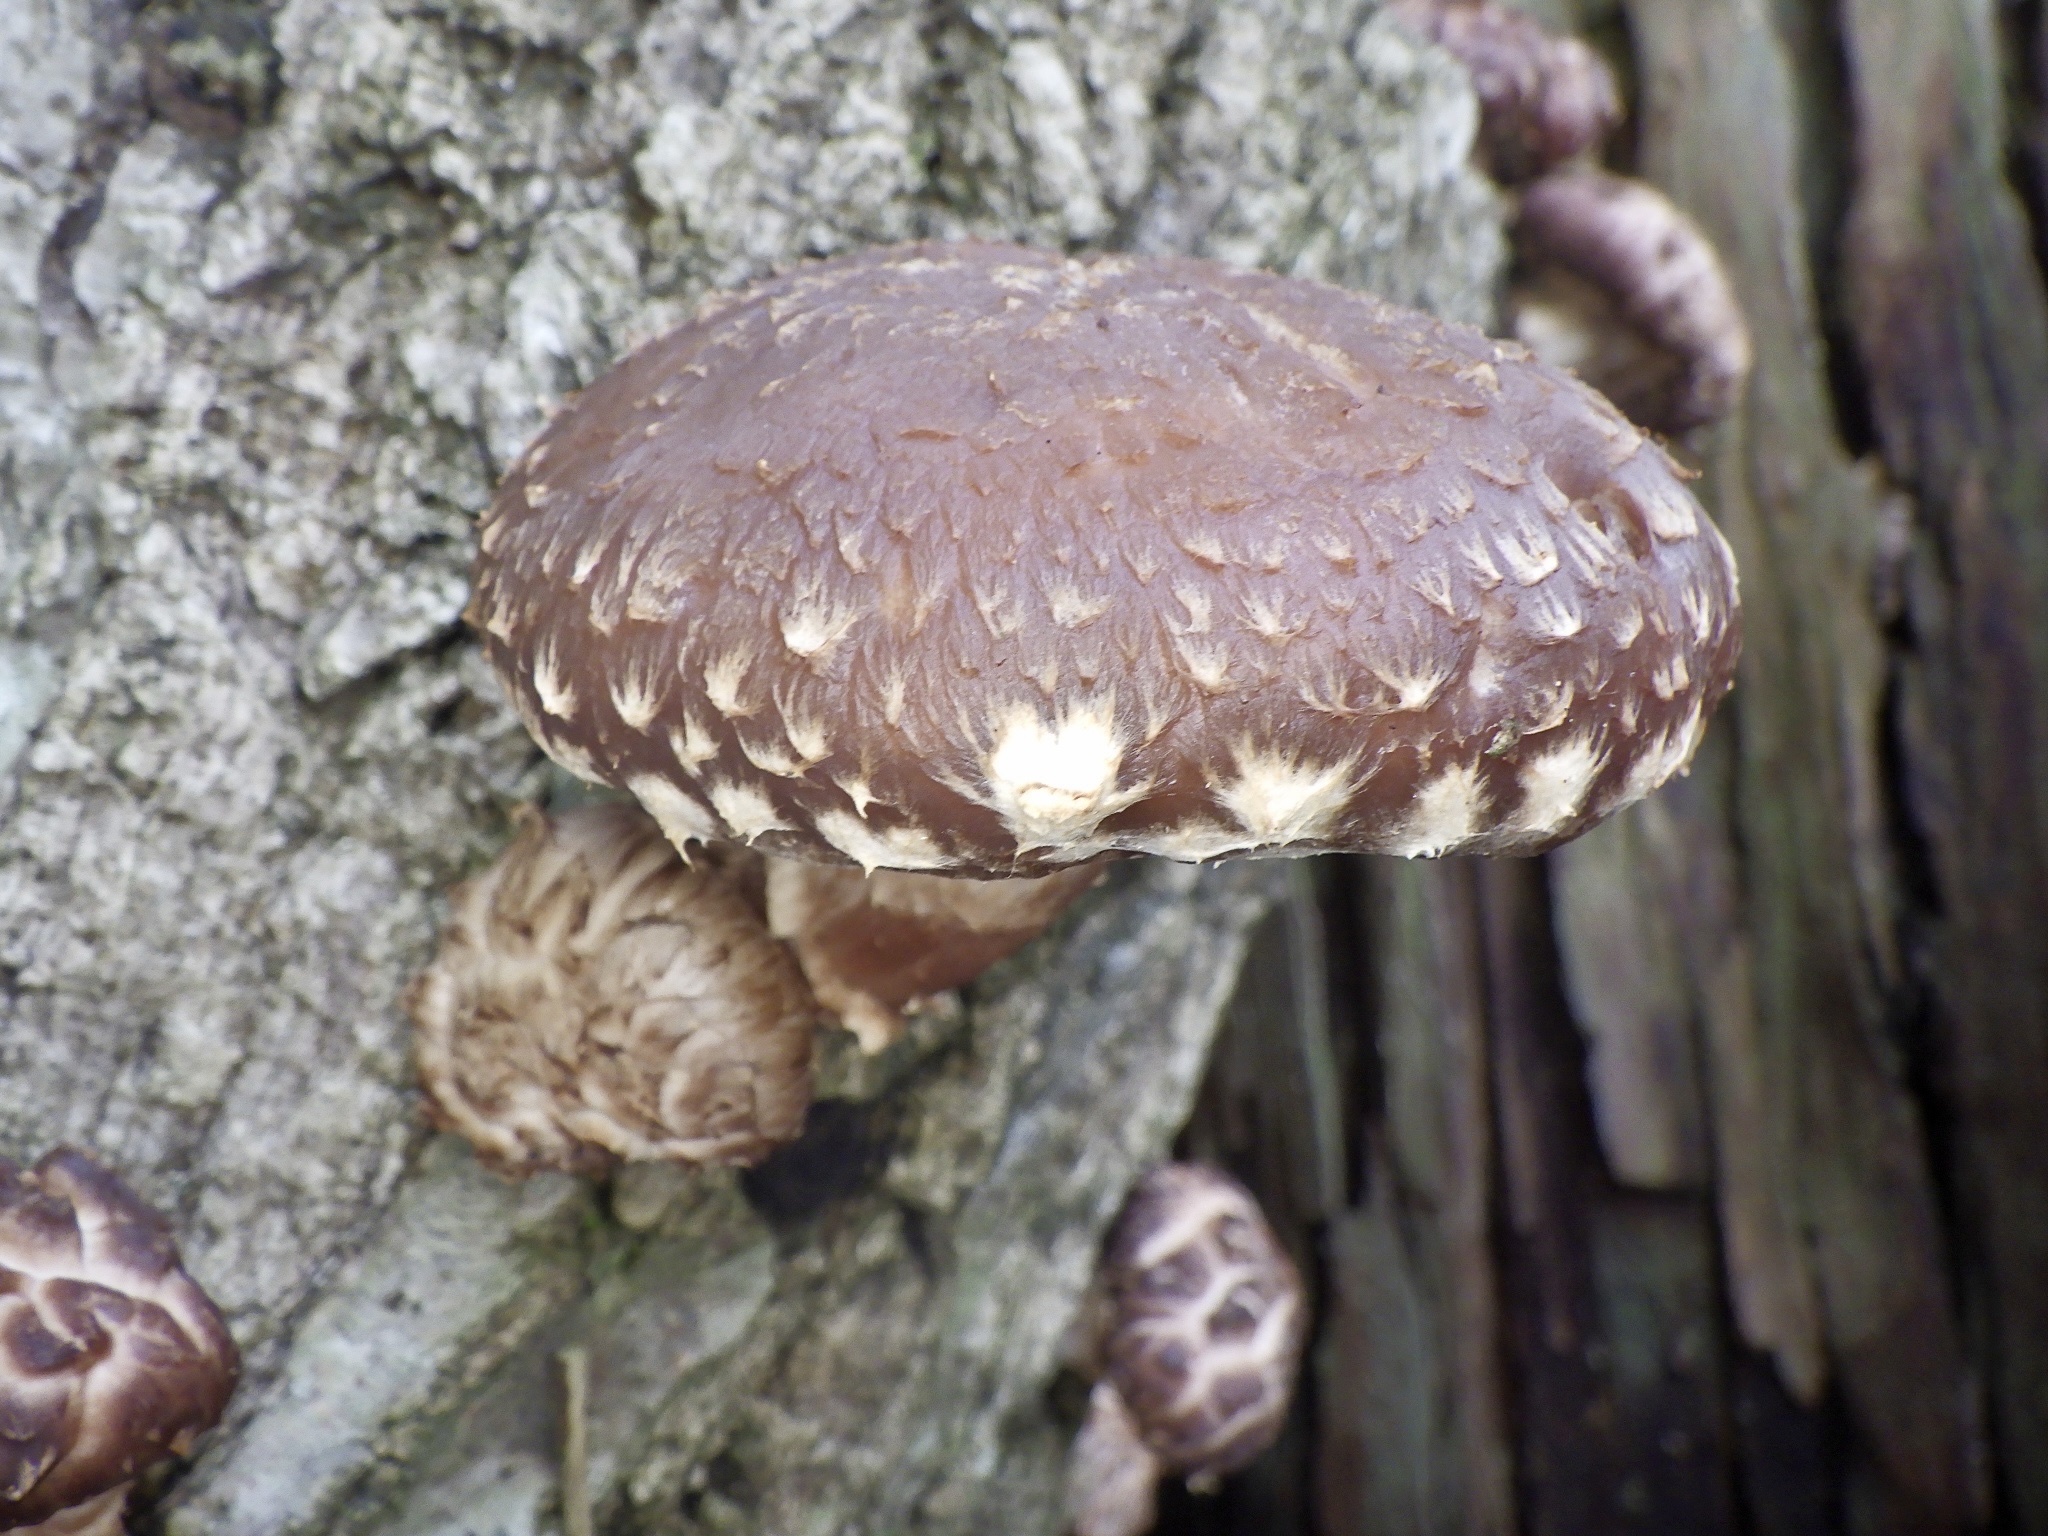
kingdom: Fungi
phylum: Basidiomycota
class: Agaricomycetes
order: Agaricales
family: Omphalotaceae
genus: Lentinula
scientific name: Lentinula edodes
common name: Shiitake
